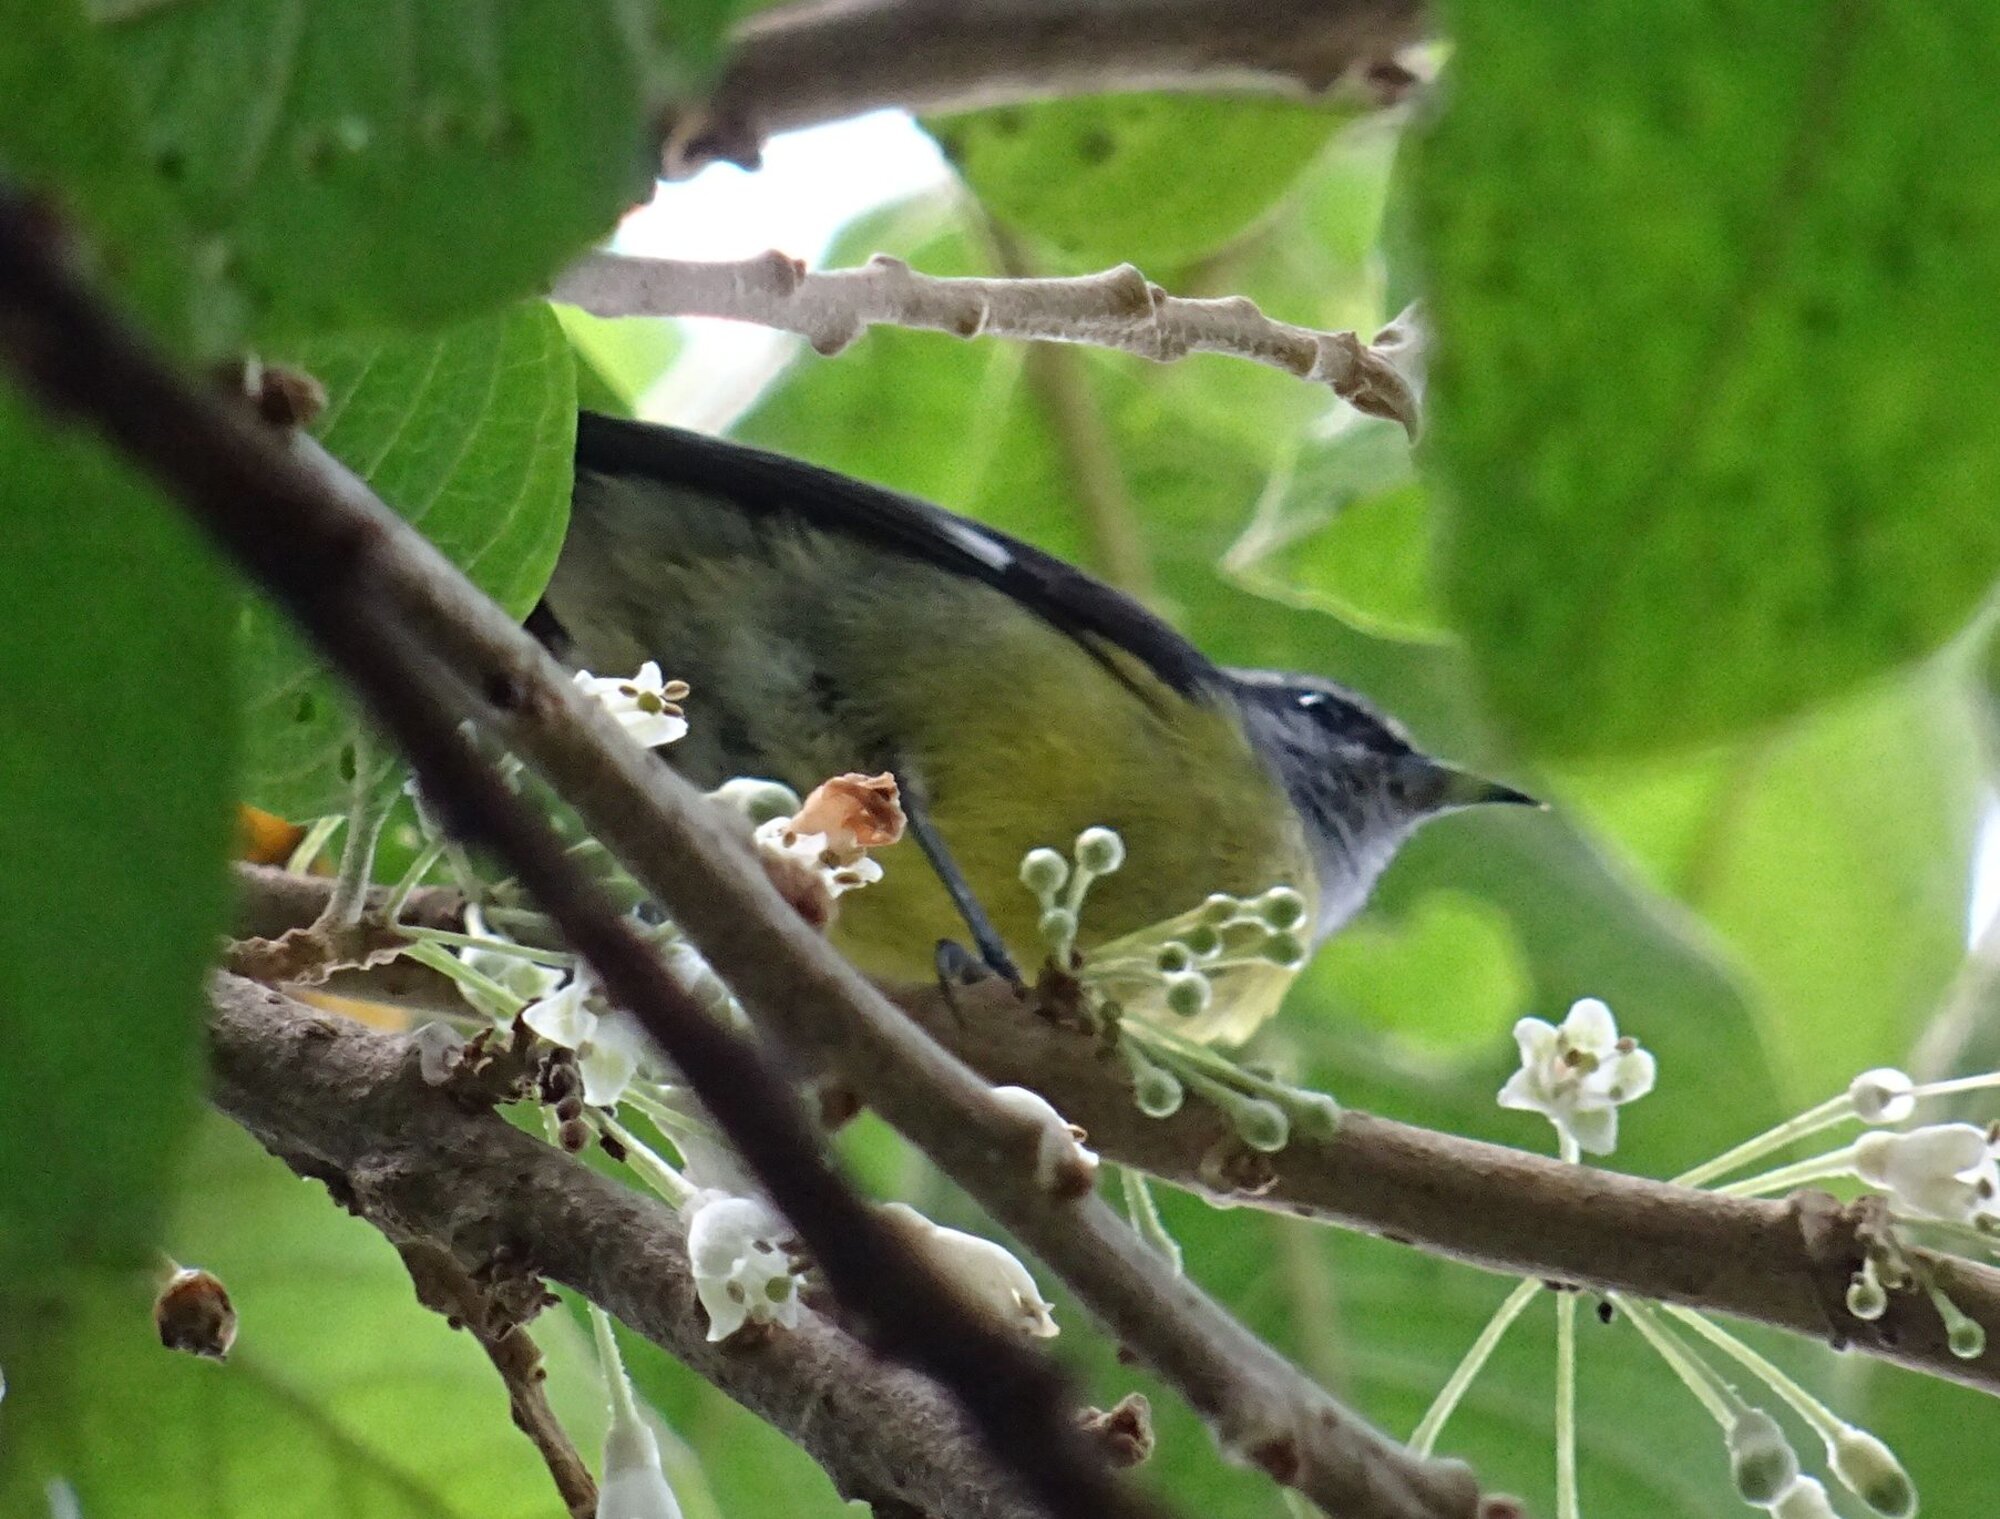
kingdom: Animalia
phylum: Chordata
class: Aves
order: Passeriformes
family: Thraupidae
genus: Coereba
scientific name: Coereba flaveola
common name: Bananaquit
